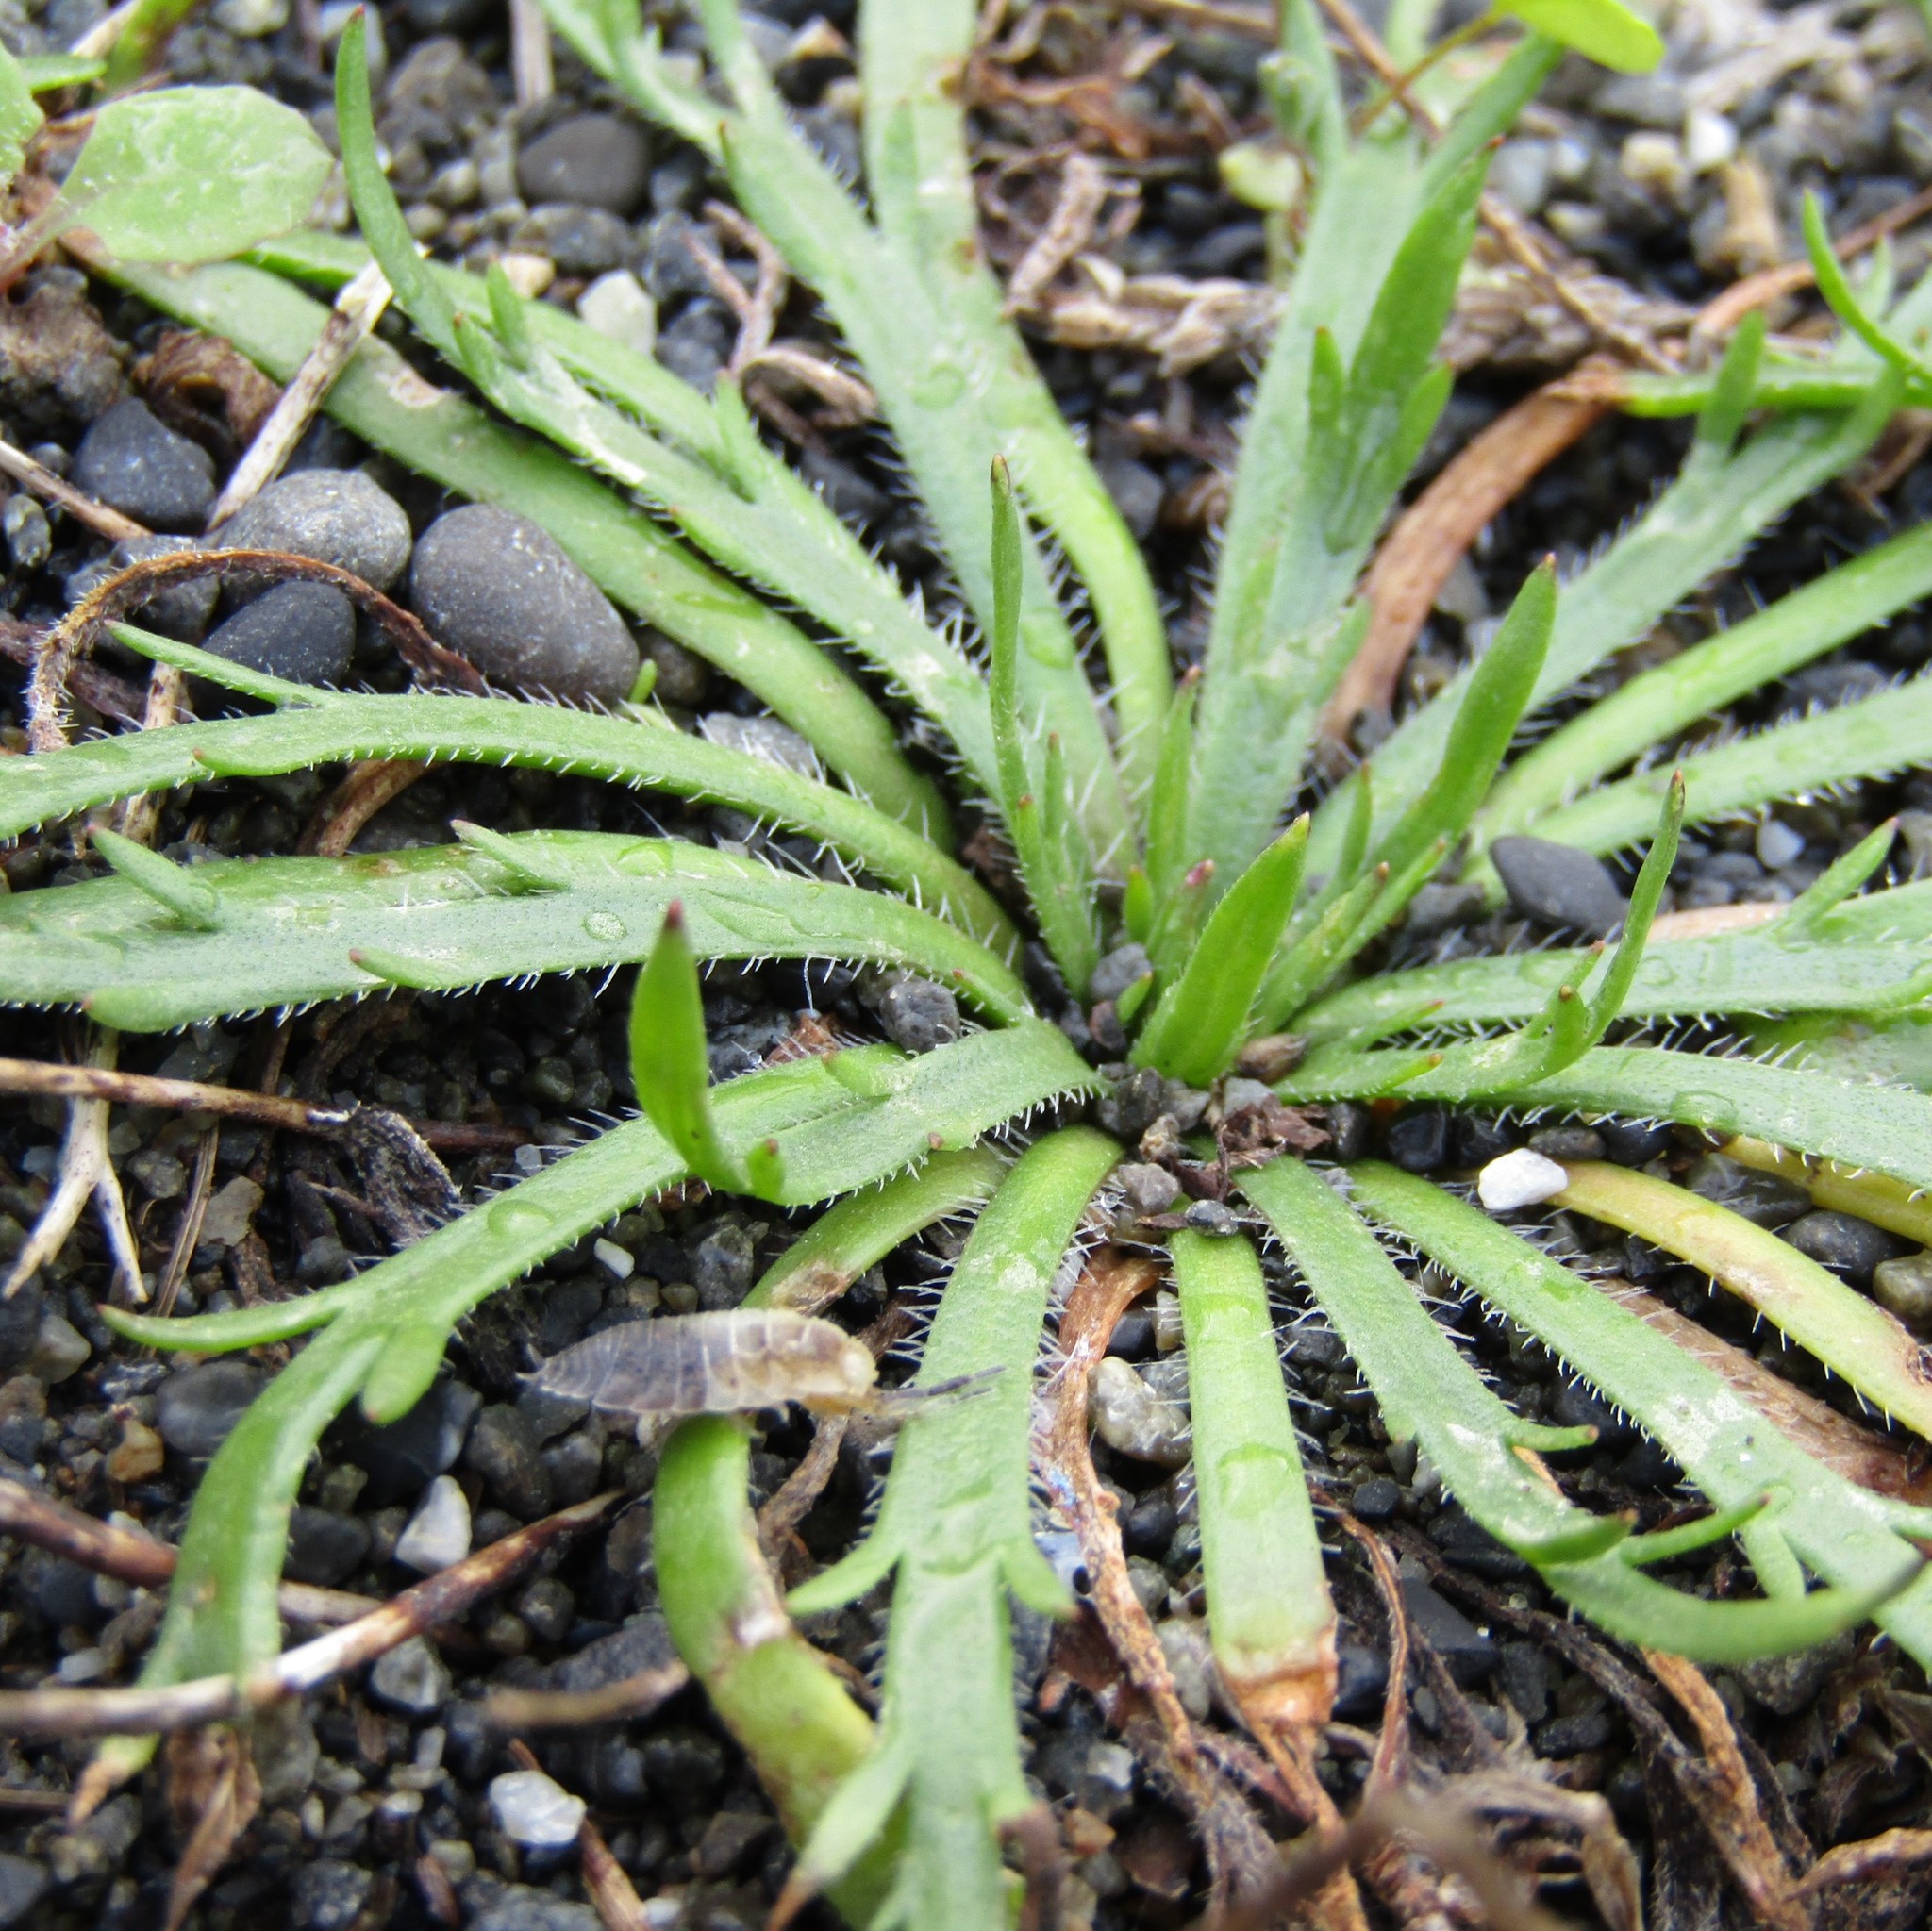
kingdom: Plantae
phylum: Tracheophyta
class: Magnoliopsida
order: Lamiales
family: Plantaginaceae
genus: Plantago
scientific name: Plantago coronopus
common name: Buck's-horn plantain
